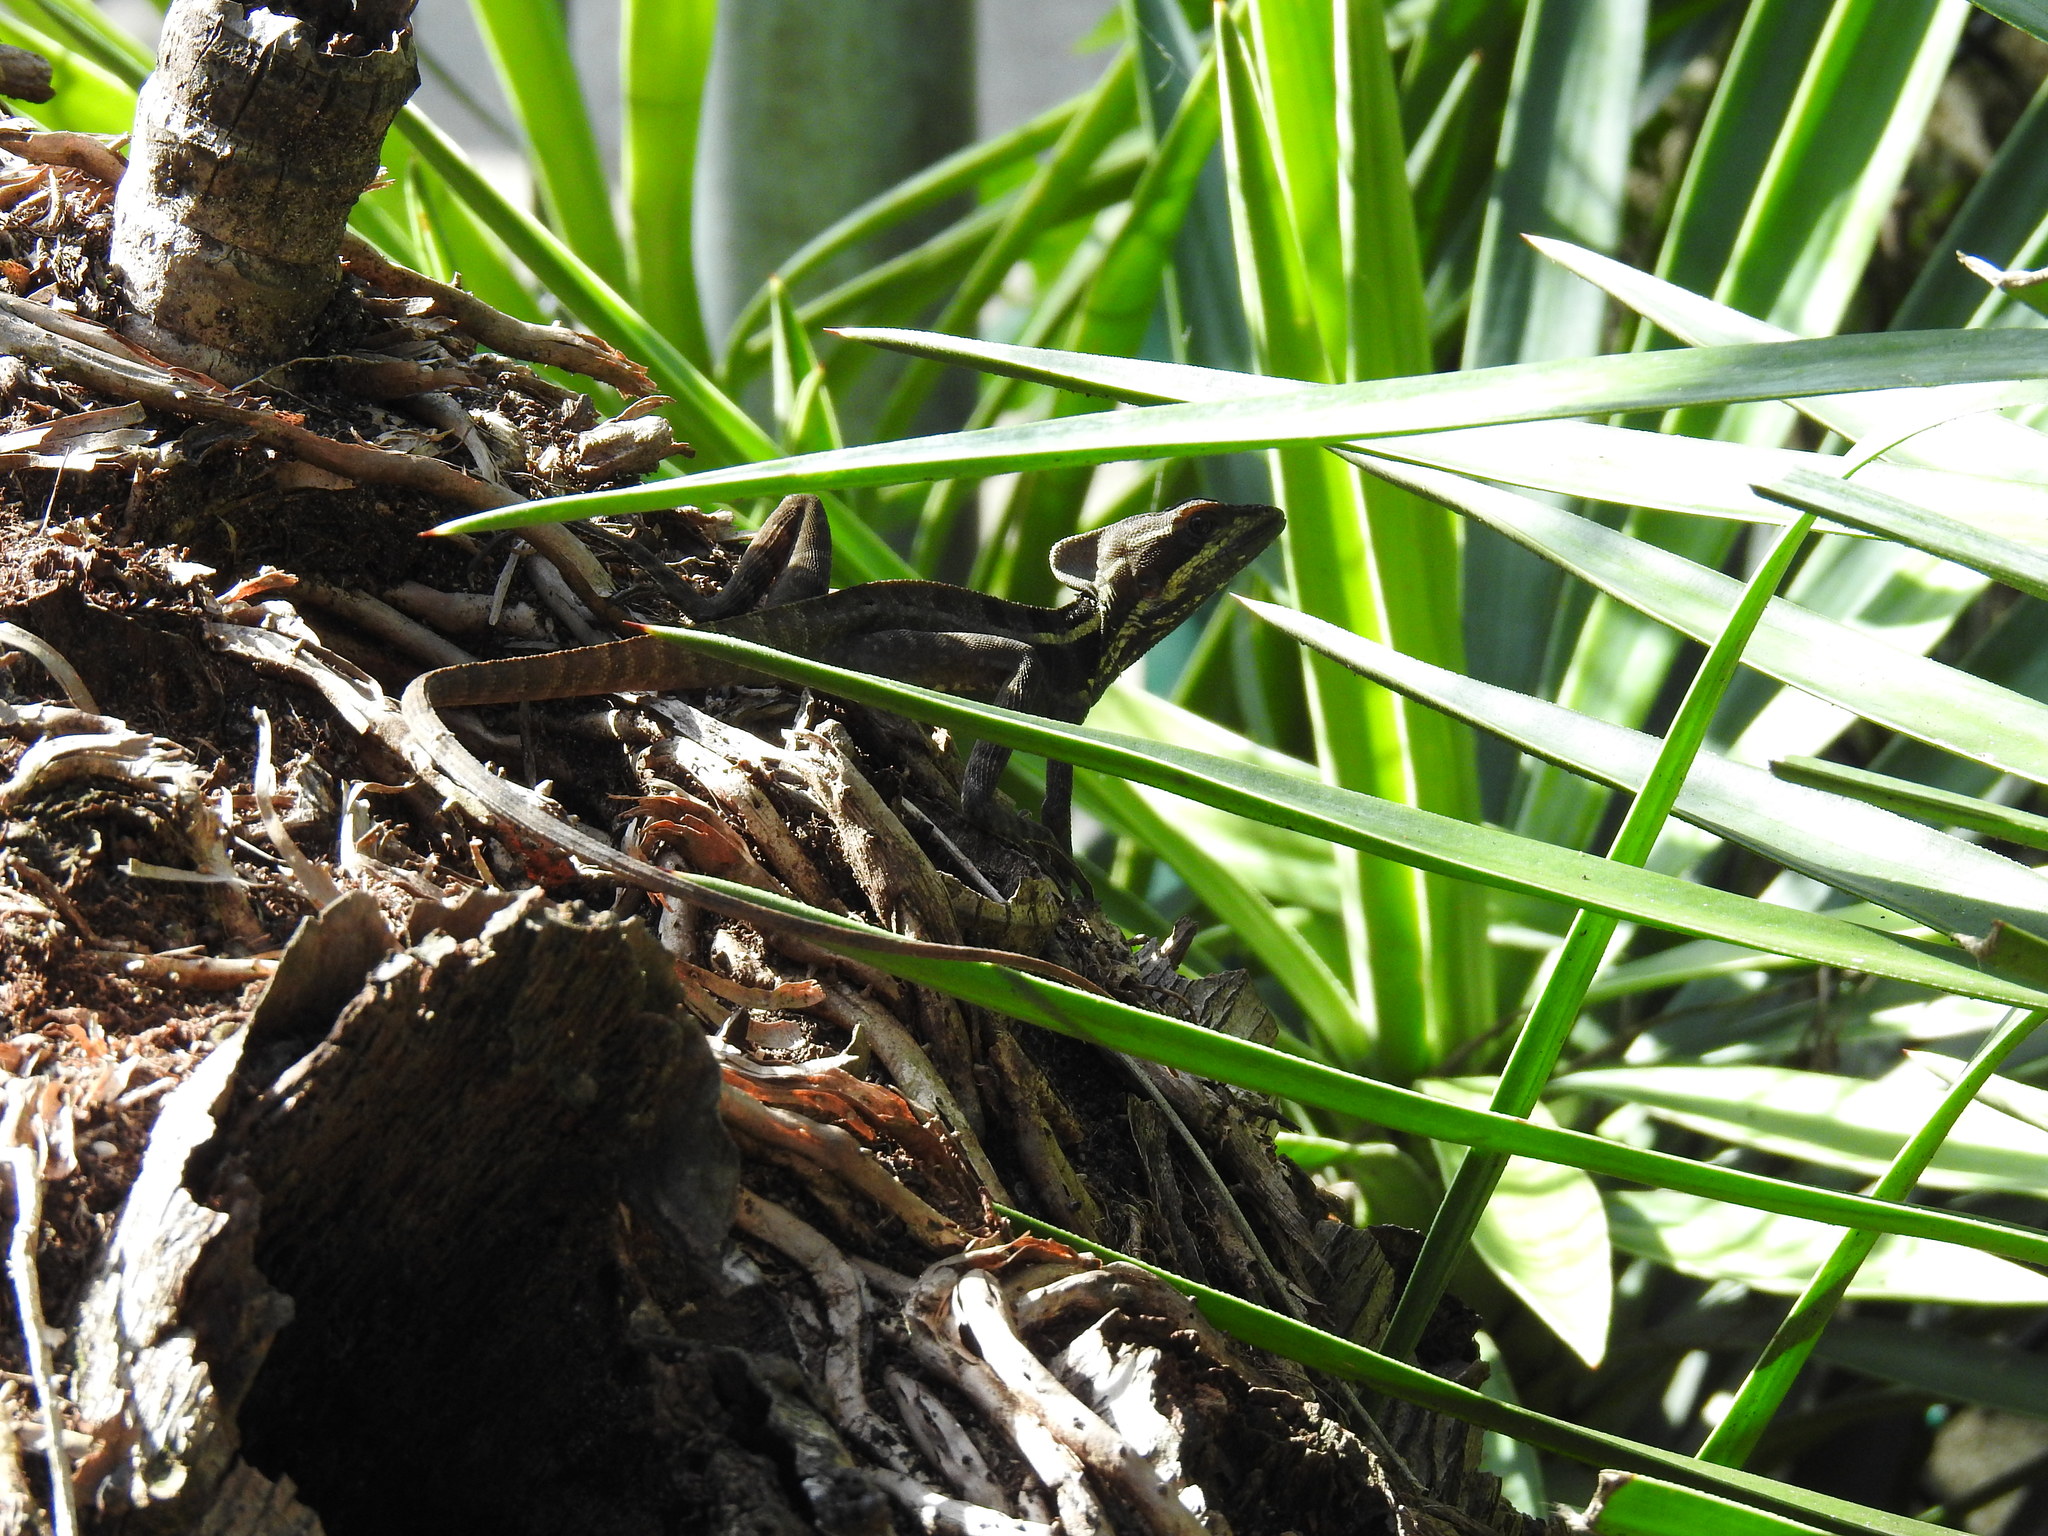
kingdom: Animalia
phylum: Chordata
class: Squamata
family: Corytophanidae
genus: Basiliscus
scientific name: Basiliscus vittatus
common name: Brown basilisk
